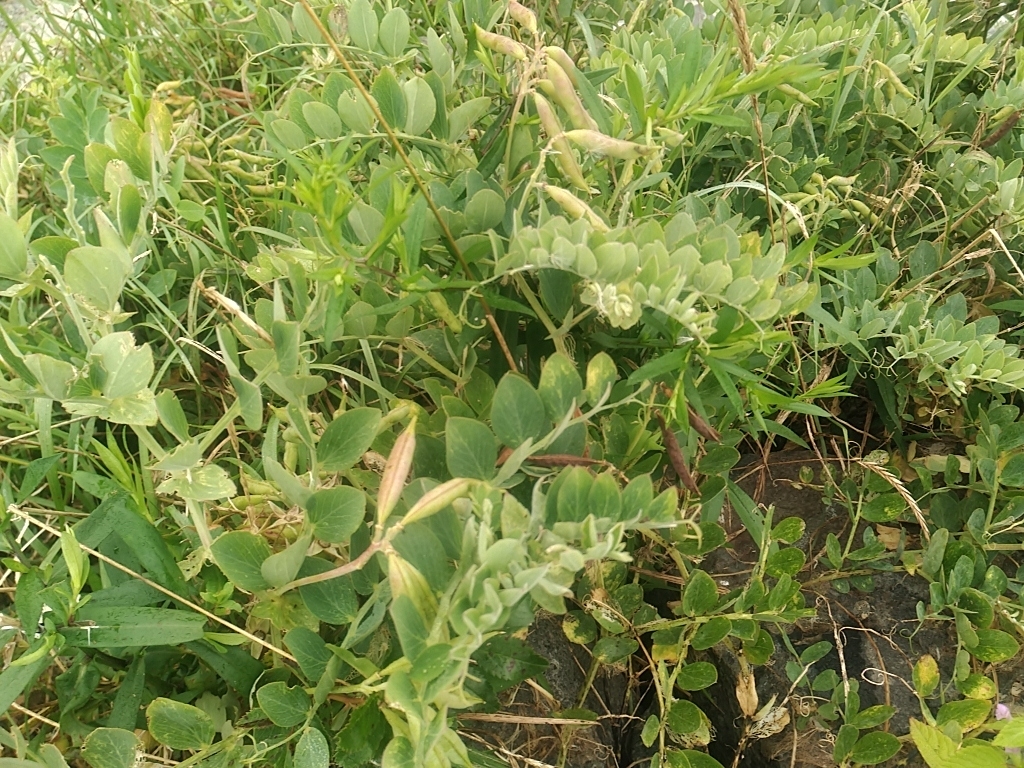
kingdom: Plantae
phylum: Tracheophyta
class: Magnoliopsida
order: Fabales
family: Fabaceae
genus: Lathyrus
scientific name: Lathyrus japonicus
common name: Sea pea
